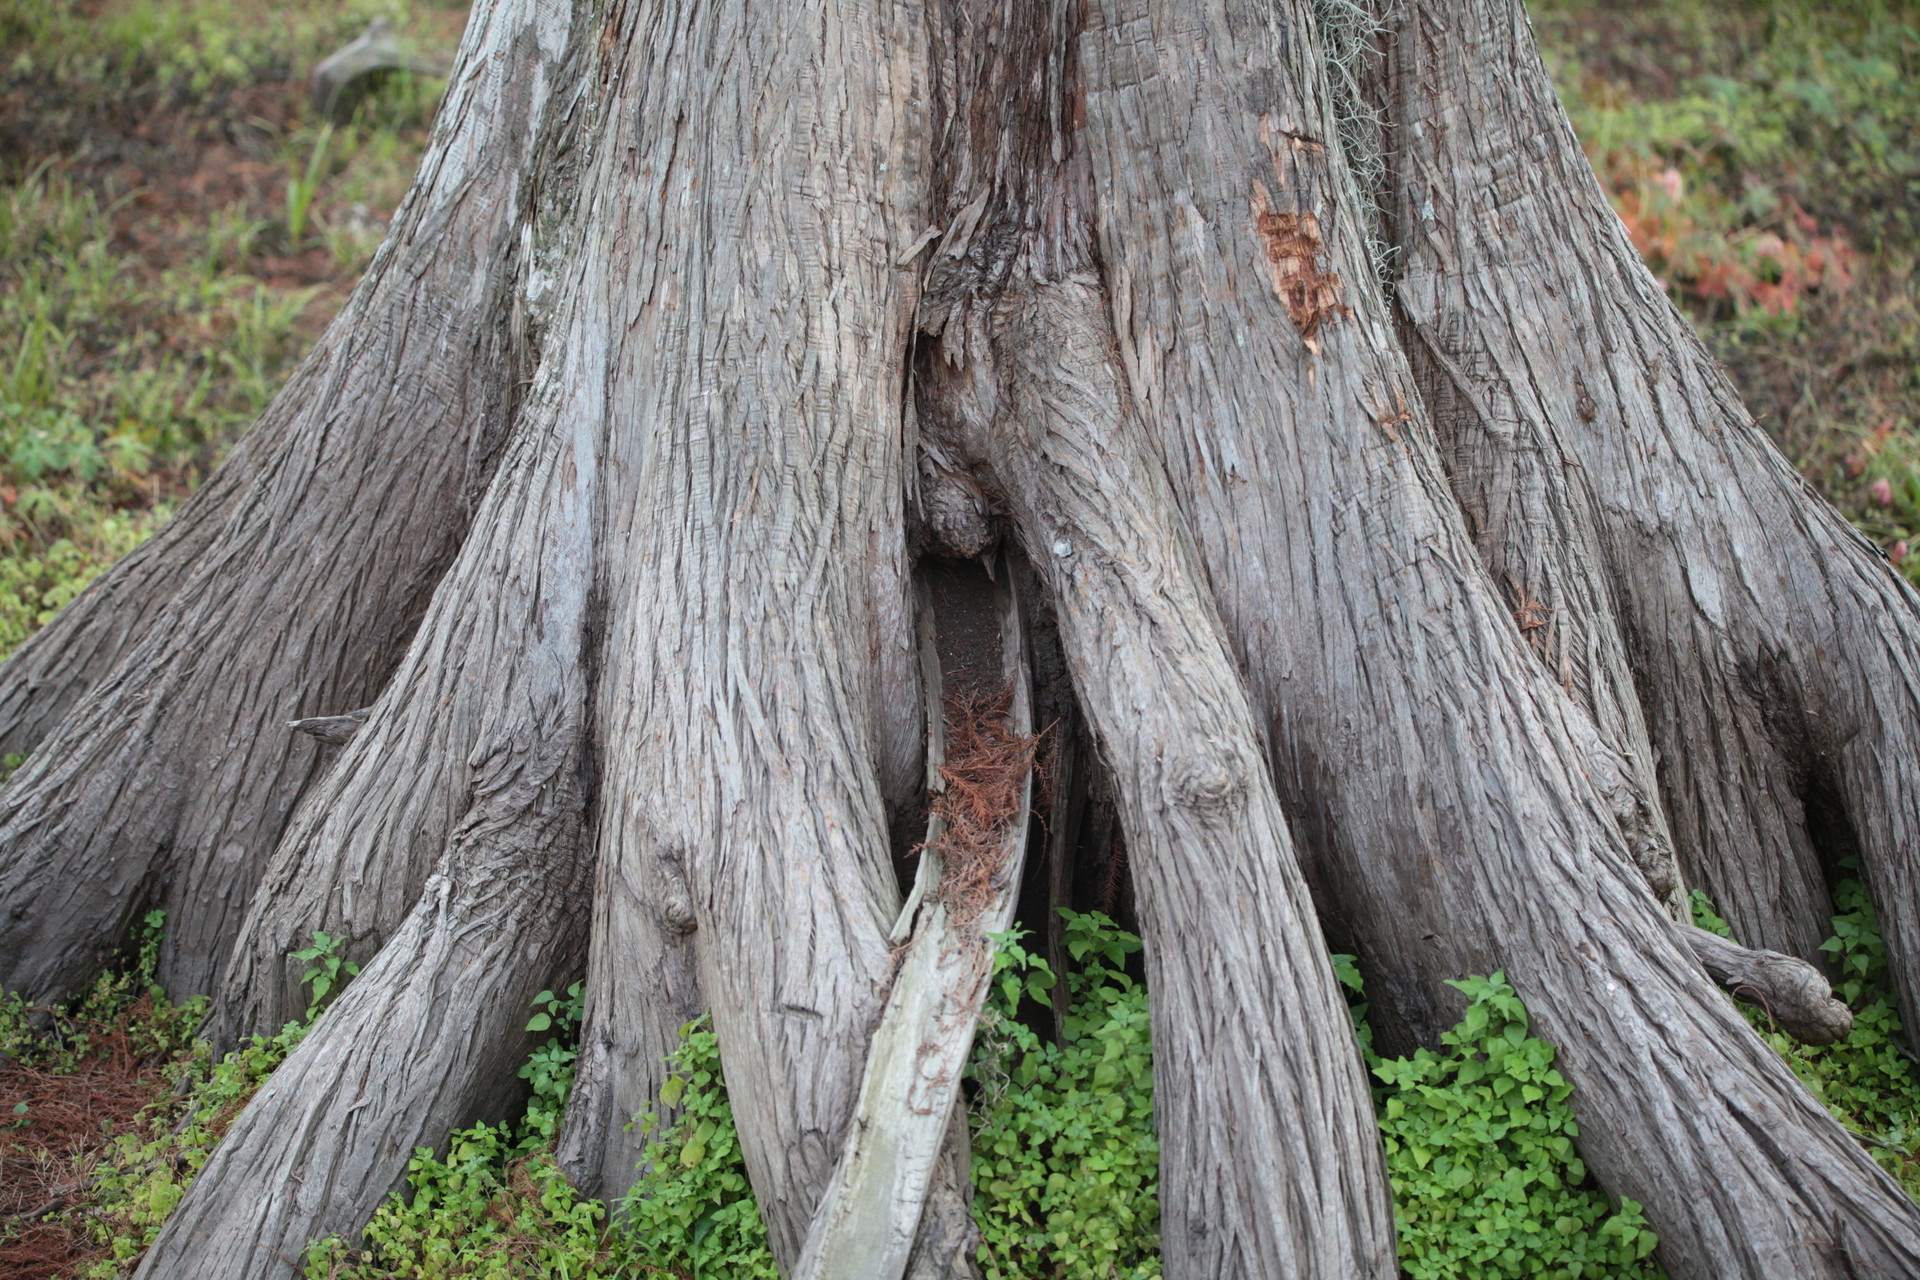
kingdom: Plantae
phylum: Tracheophyta
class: Pinopsida
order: Pinales
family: Cupressaceae
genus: Taxodium
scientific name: Taxodium distichum
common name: Bald cypress
